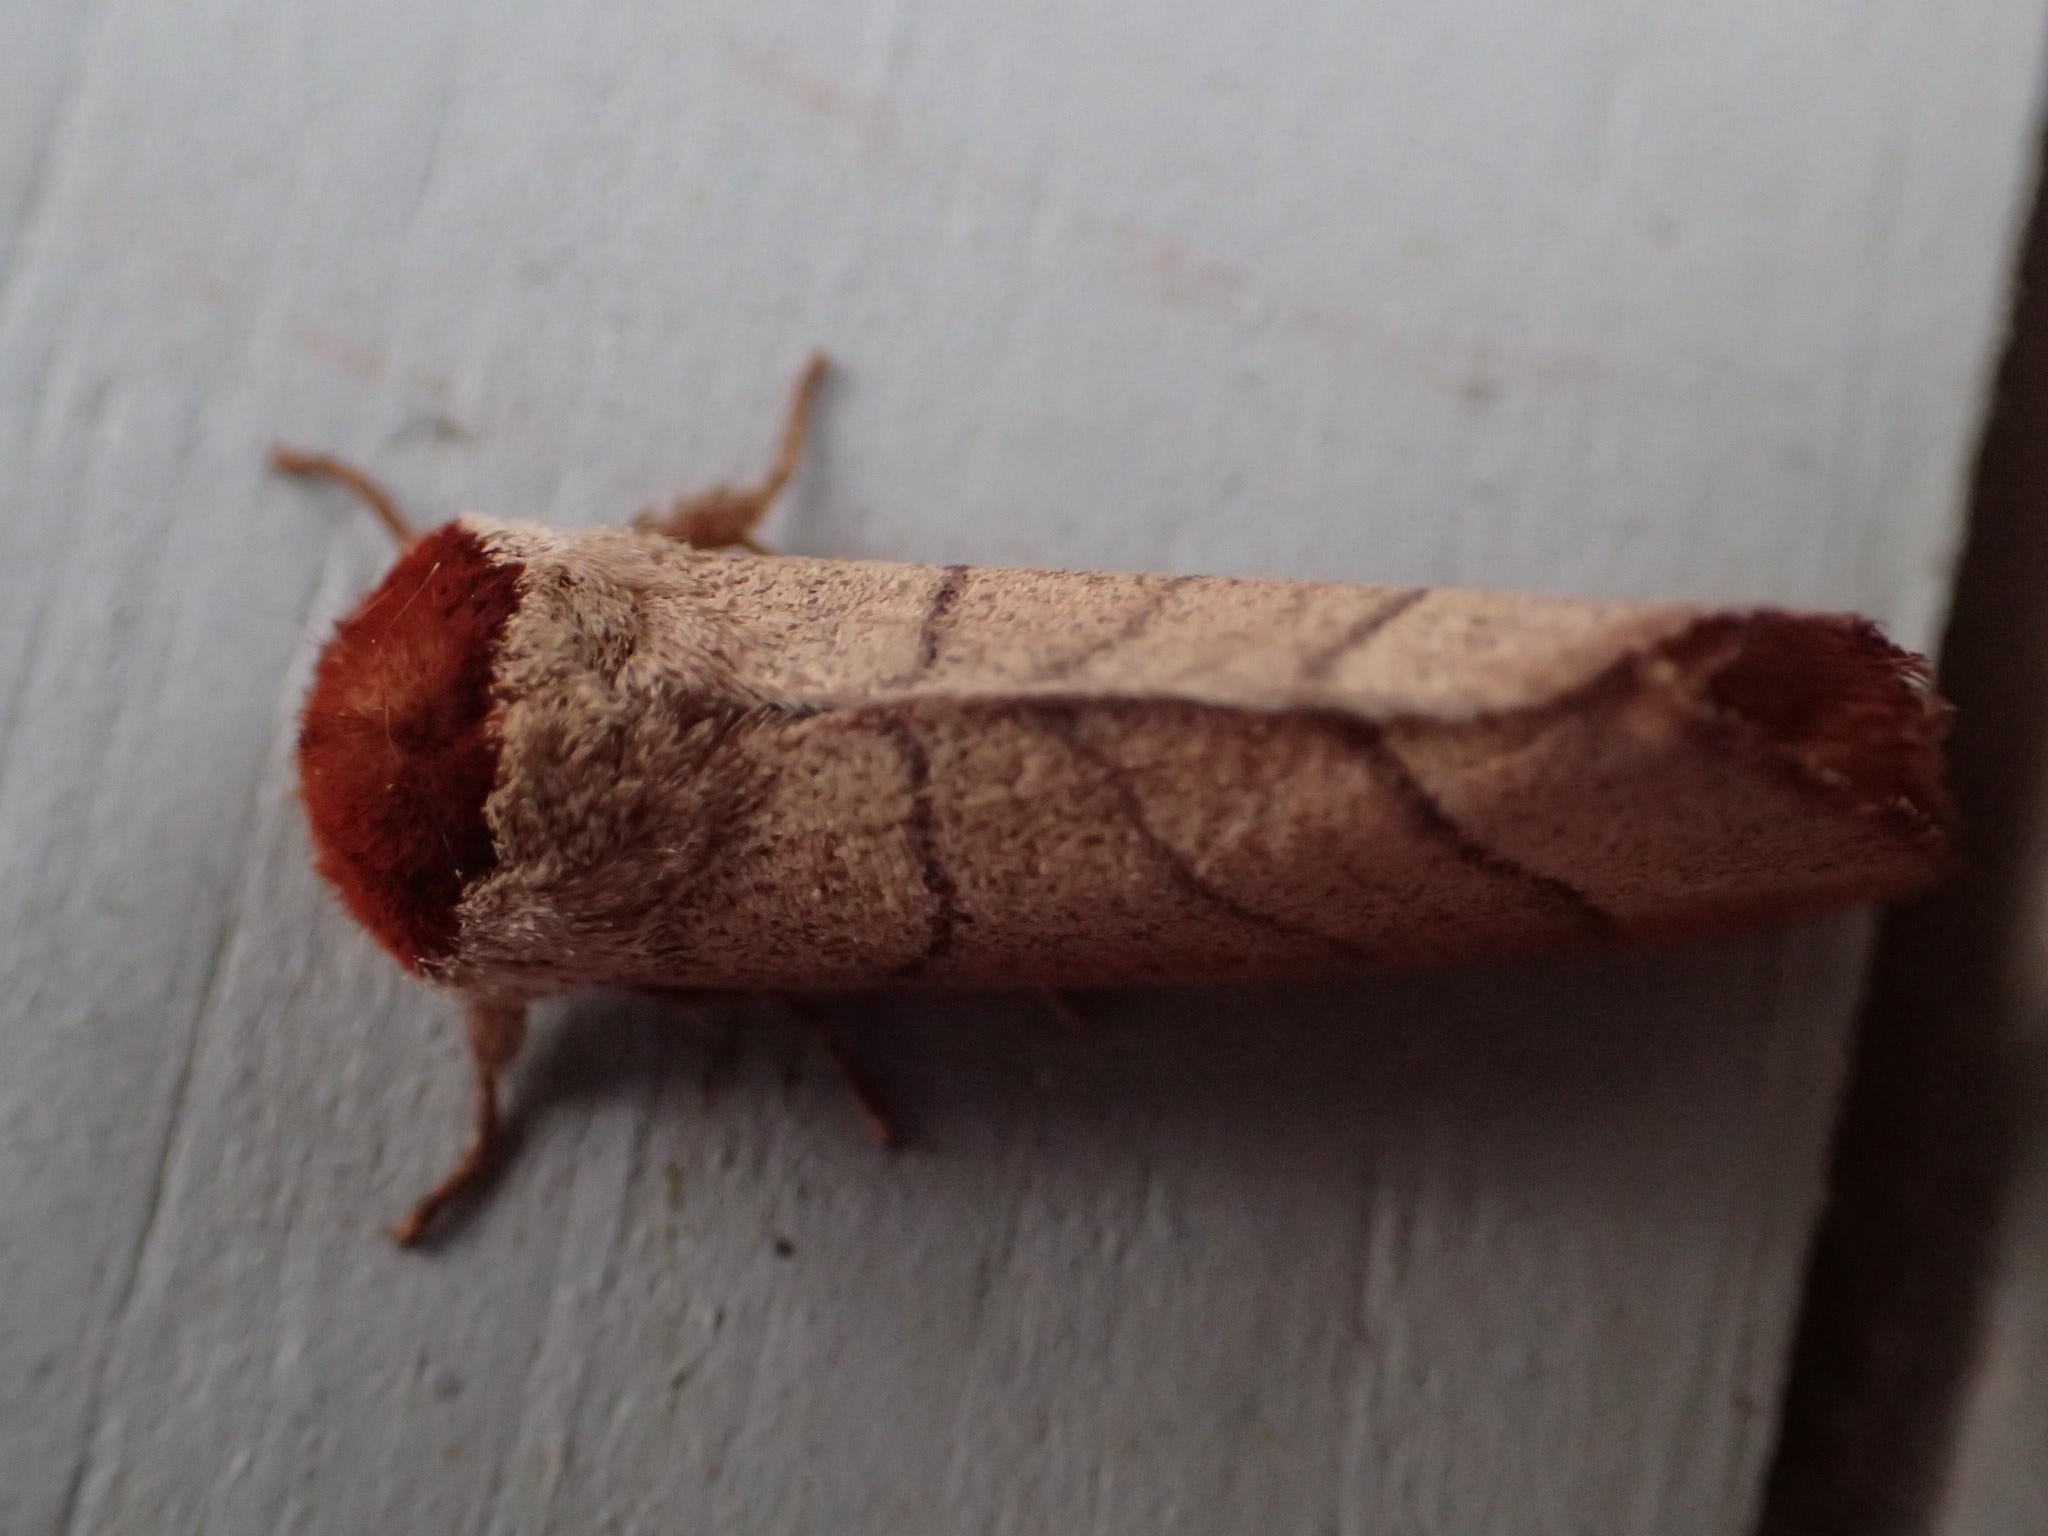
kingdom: Animalia
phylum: Arthropoda
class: Insecta
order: Lepidoptera
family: Notodontidae
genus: Datana
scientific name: Datana ministra
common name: Yellow-necked caterpillar moth
